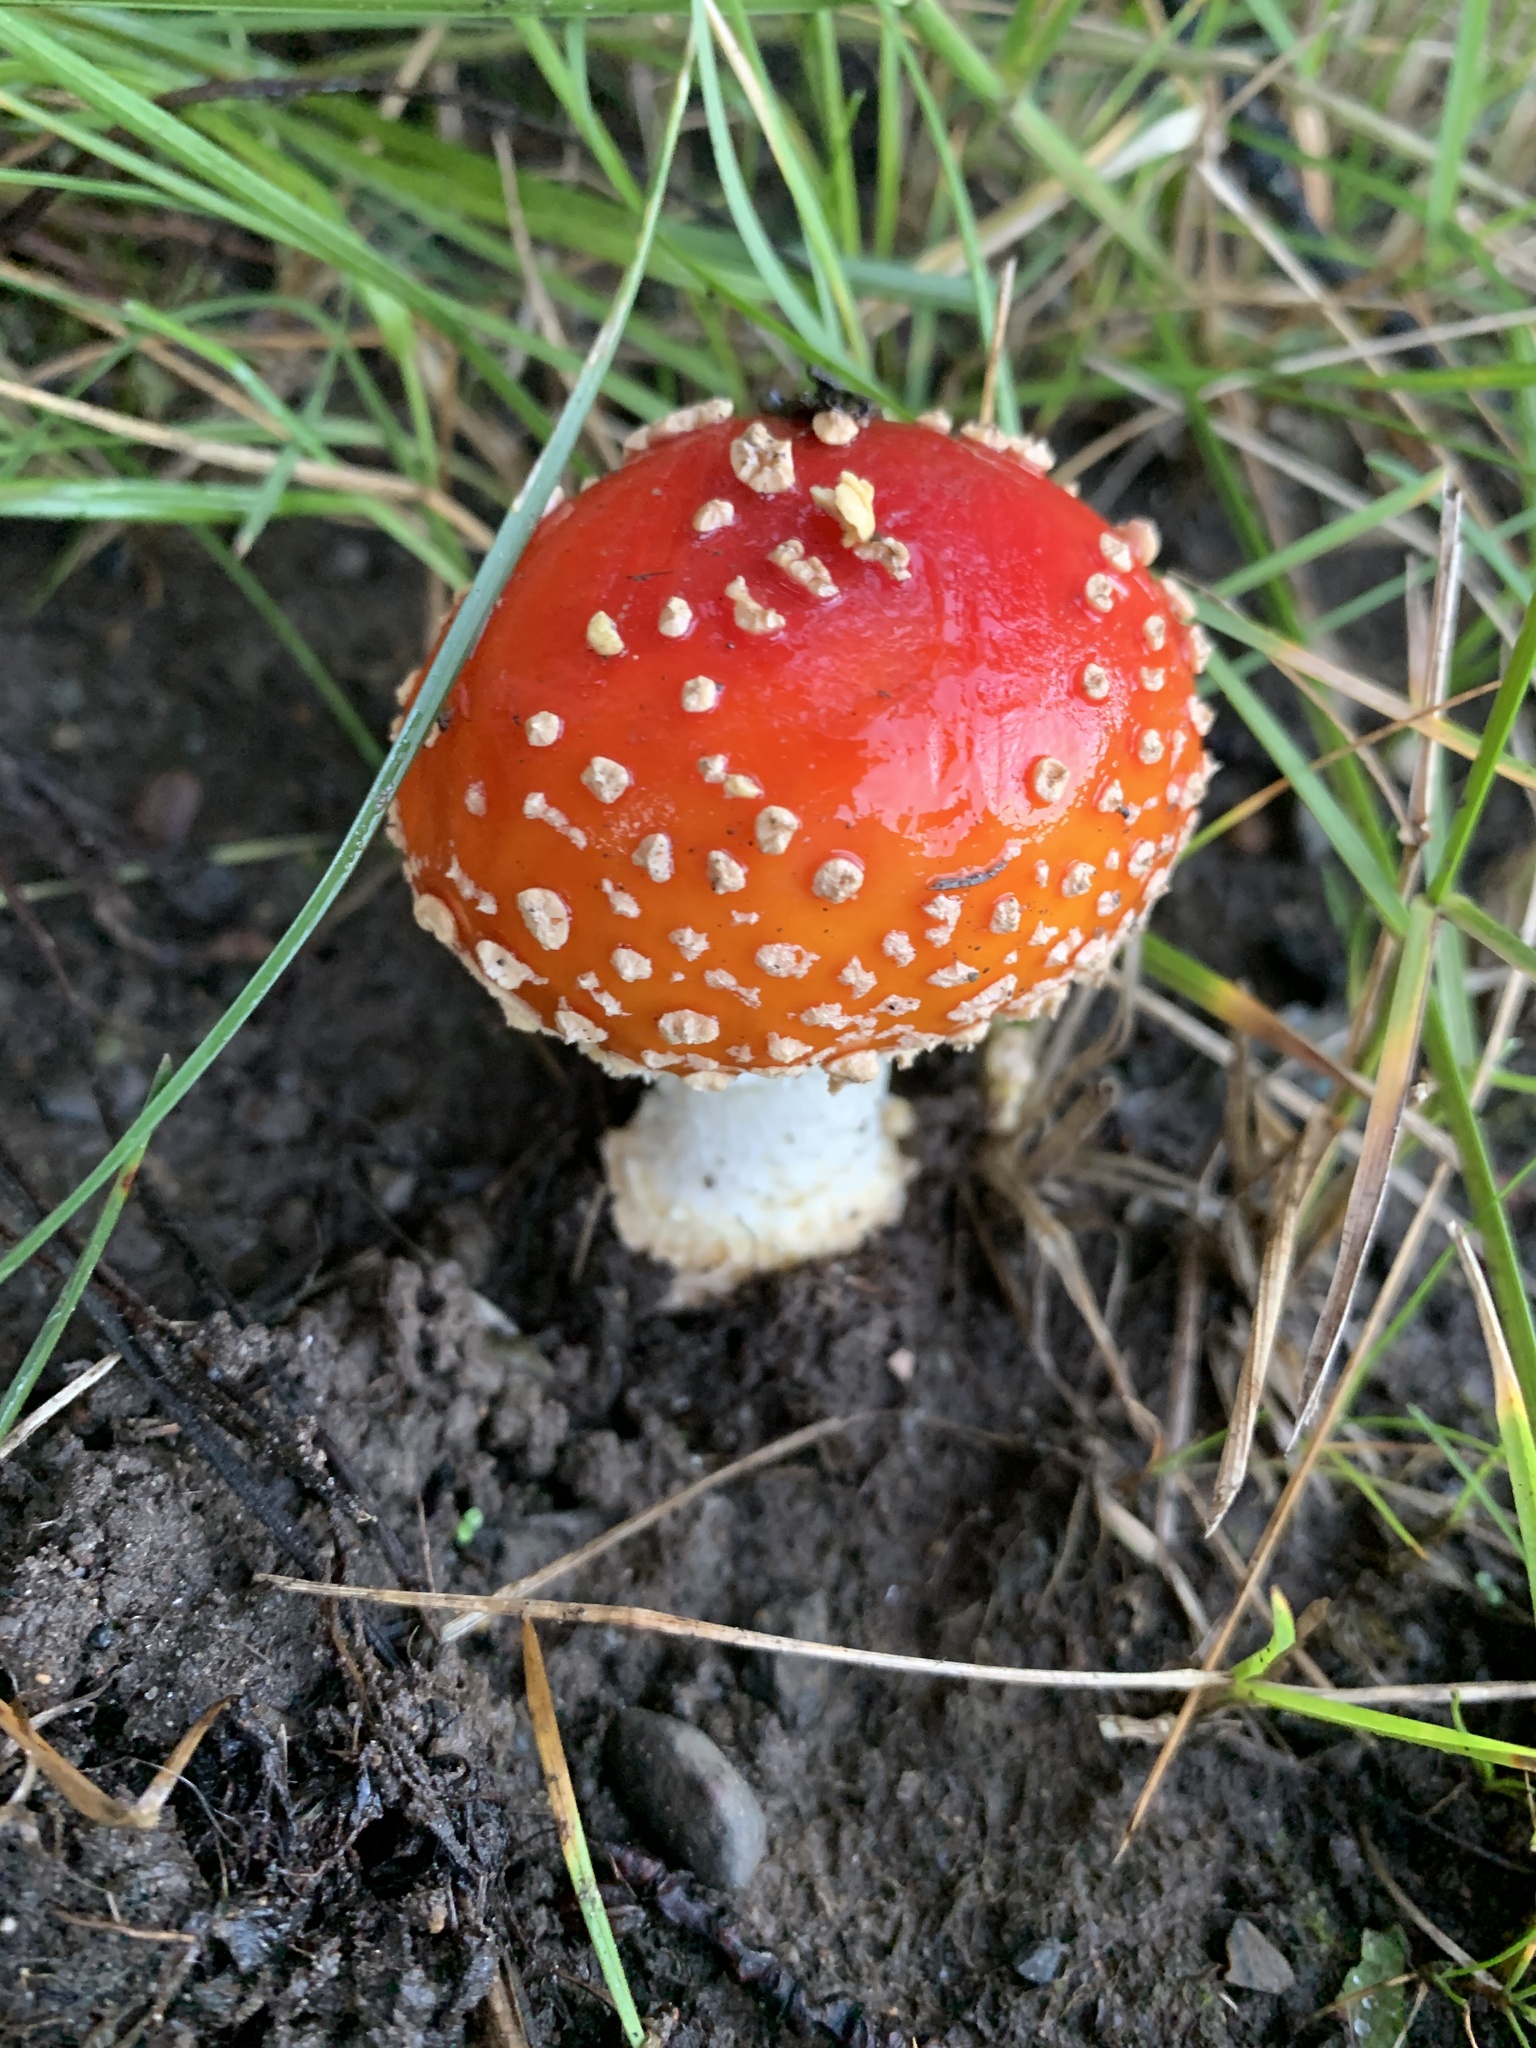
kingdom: Fungi
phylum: Basidiomycota
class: Agaricomycetes
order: Agaricales
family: Amanitaceae
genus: Amanita
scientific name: Amanita muscaria
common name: Fly agaric
